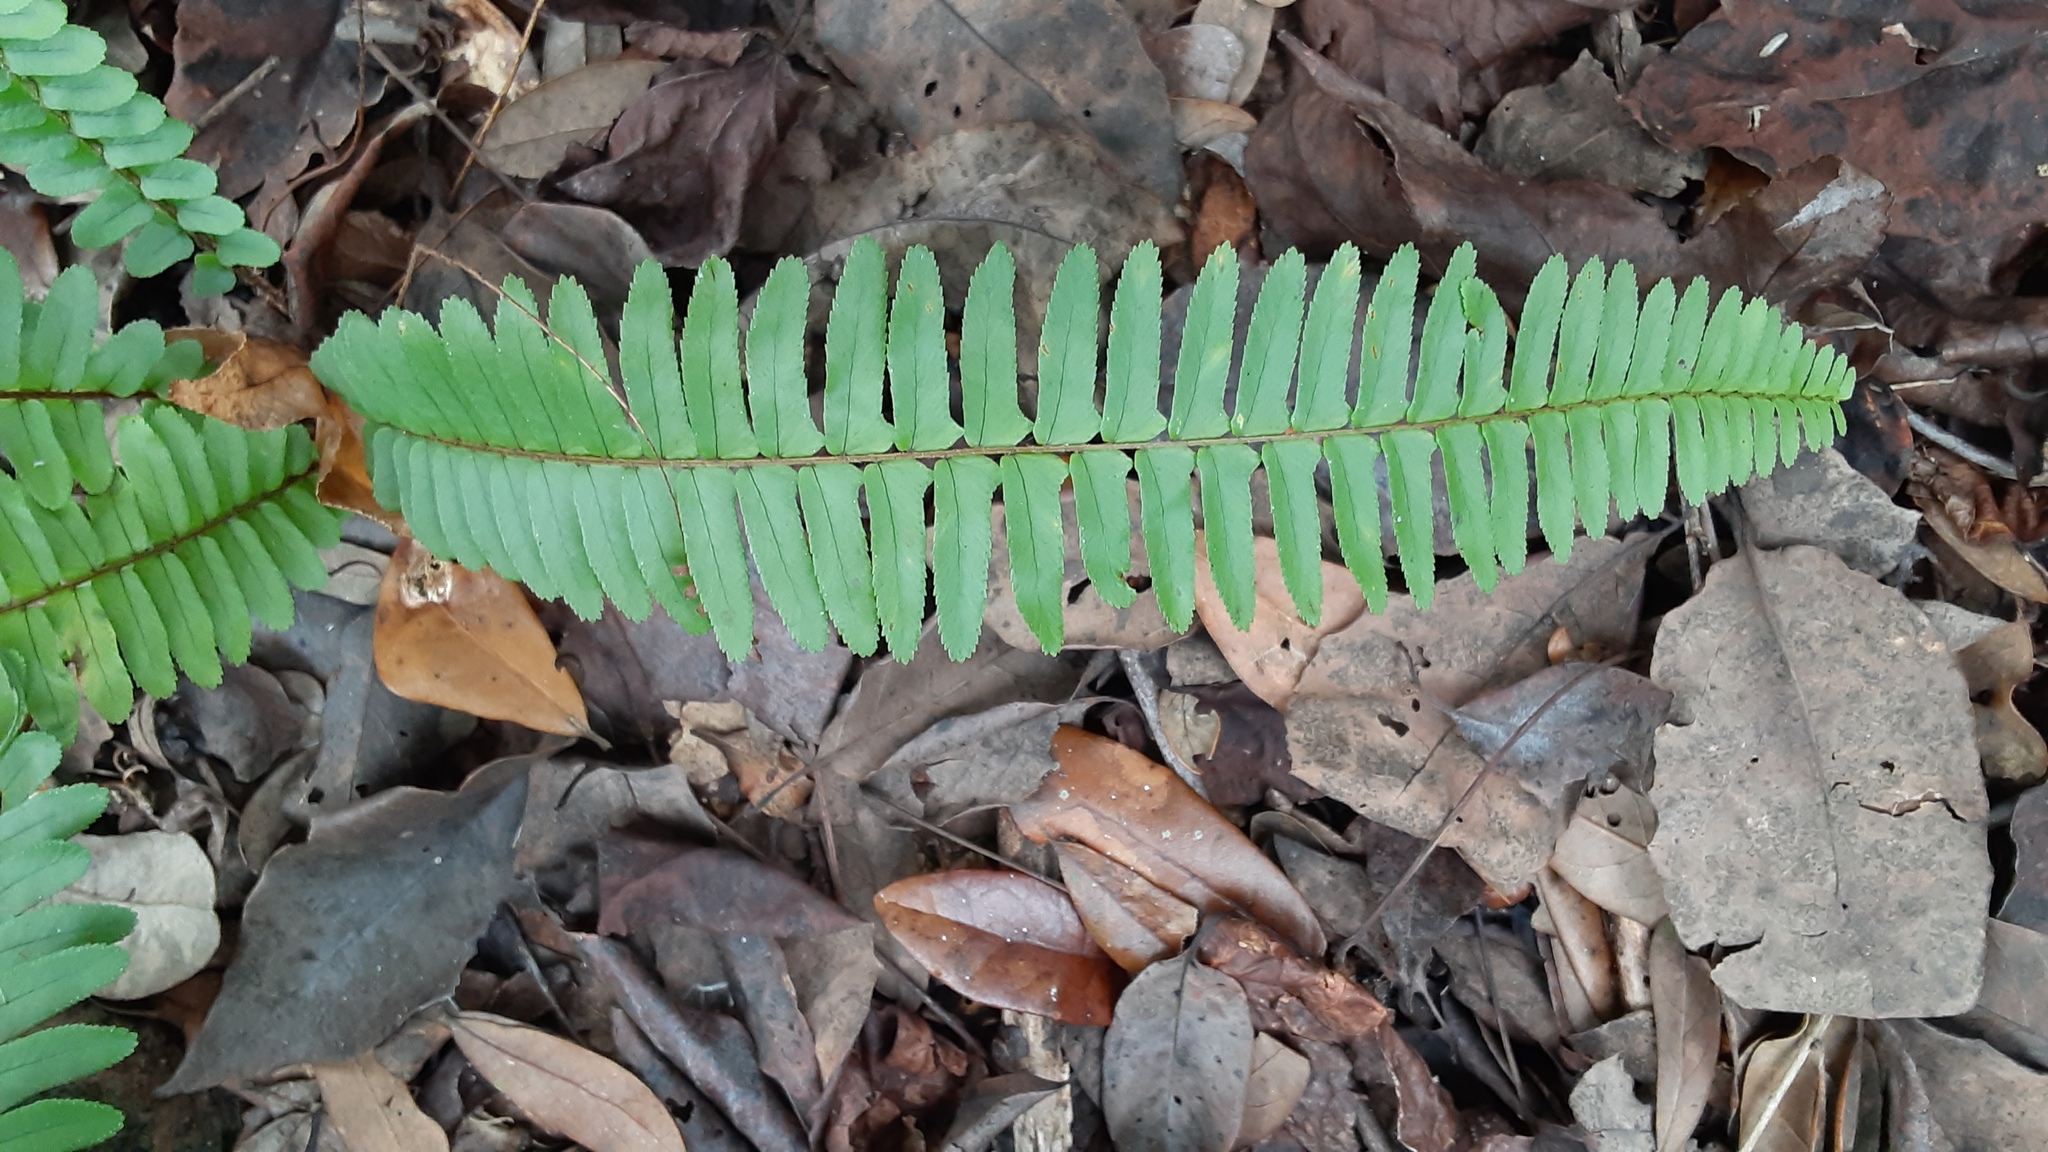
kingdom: Plantae
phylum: Tracheophyta
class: Polypodiopsida
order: Polypodiales
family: Nephrolepidaceae
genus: Nephrolepis
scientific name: Nephrolepis cordifolia
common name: Narrow swordfern
